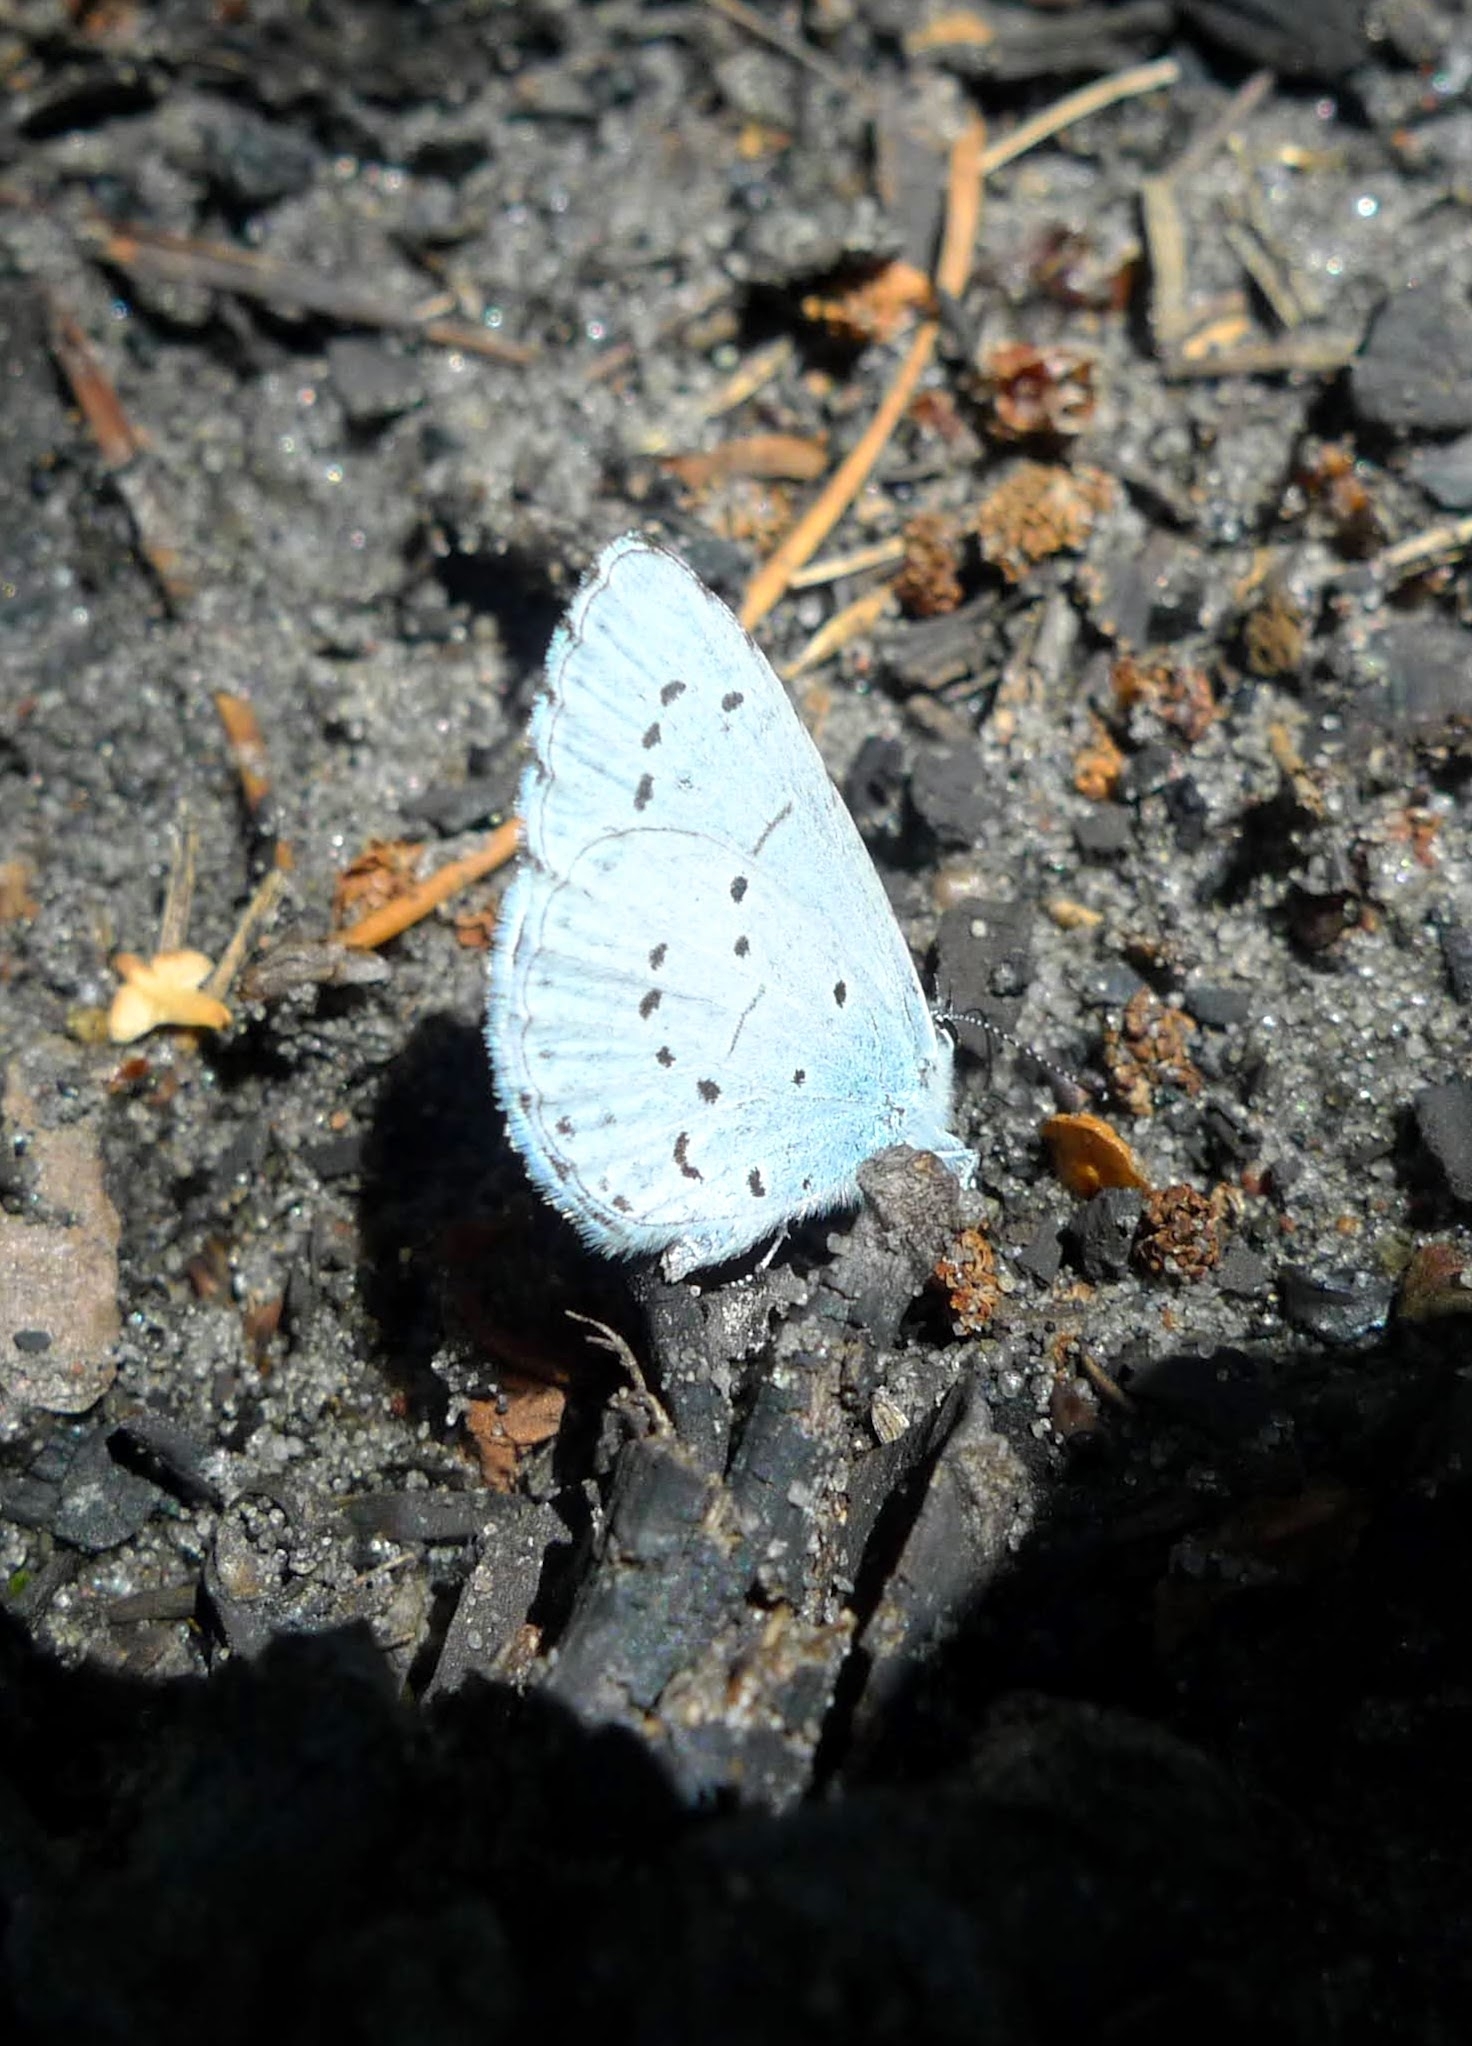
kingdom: Animalia
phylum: Arthropoda
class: Insecta
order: Lepidoptera
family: Lycaenidae
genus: Celastrina
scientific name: Celastrina argiolus
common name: Holly blue
